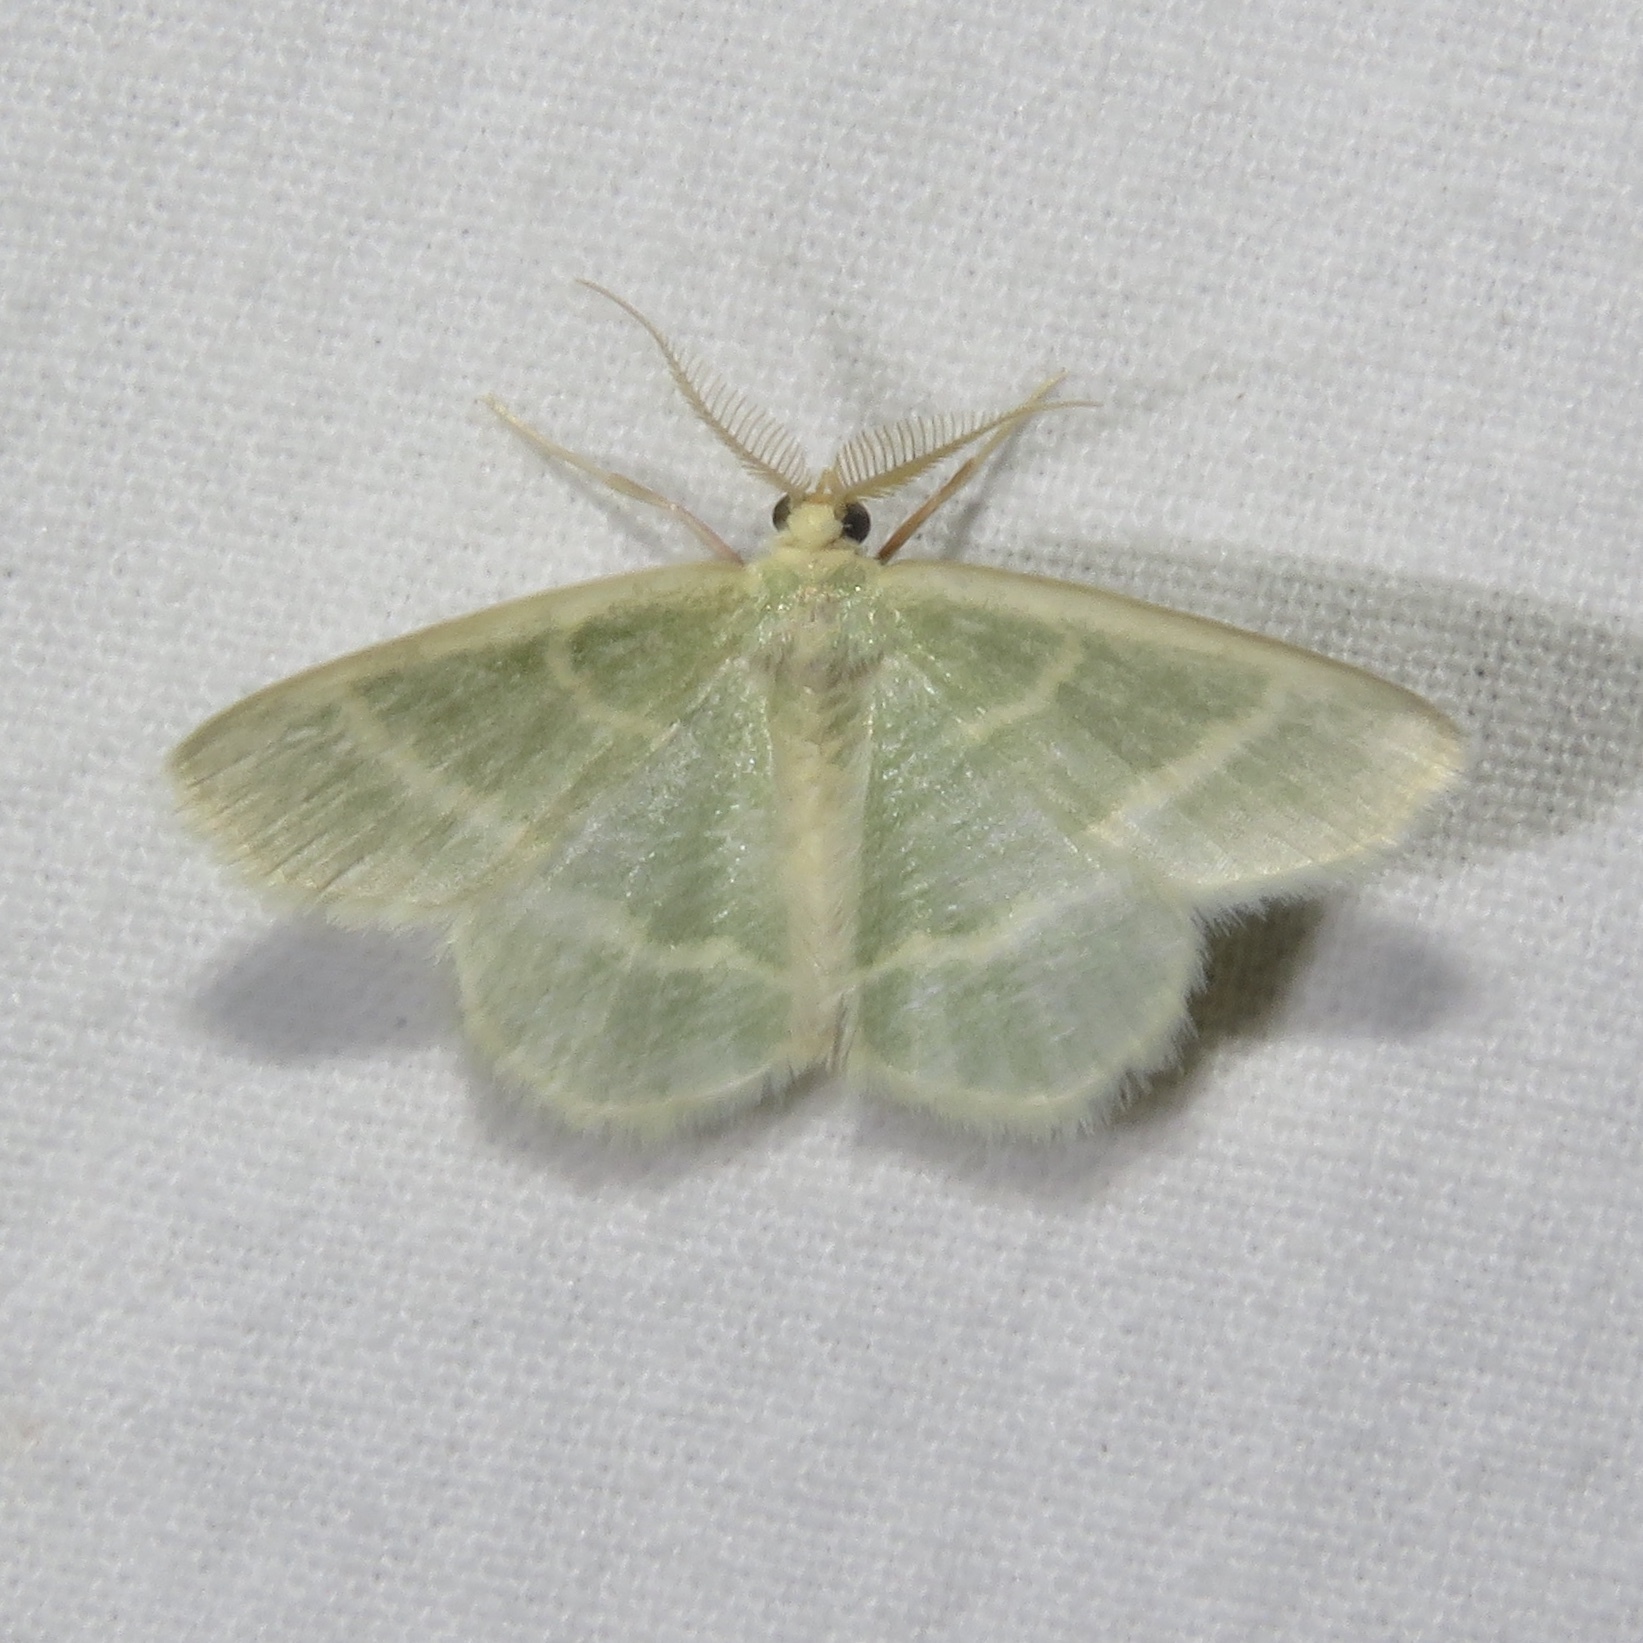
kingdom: Animalia
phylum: Arthropoda
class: Insecta
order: Lepidoptera
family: Geometridae
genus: Chlorochlamys
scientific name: Chlorochlamys chloroleucaria
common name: Blackberry looper
